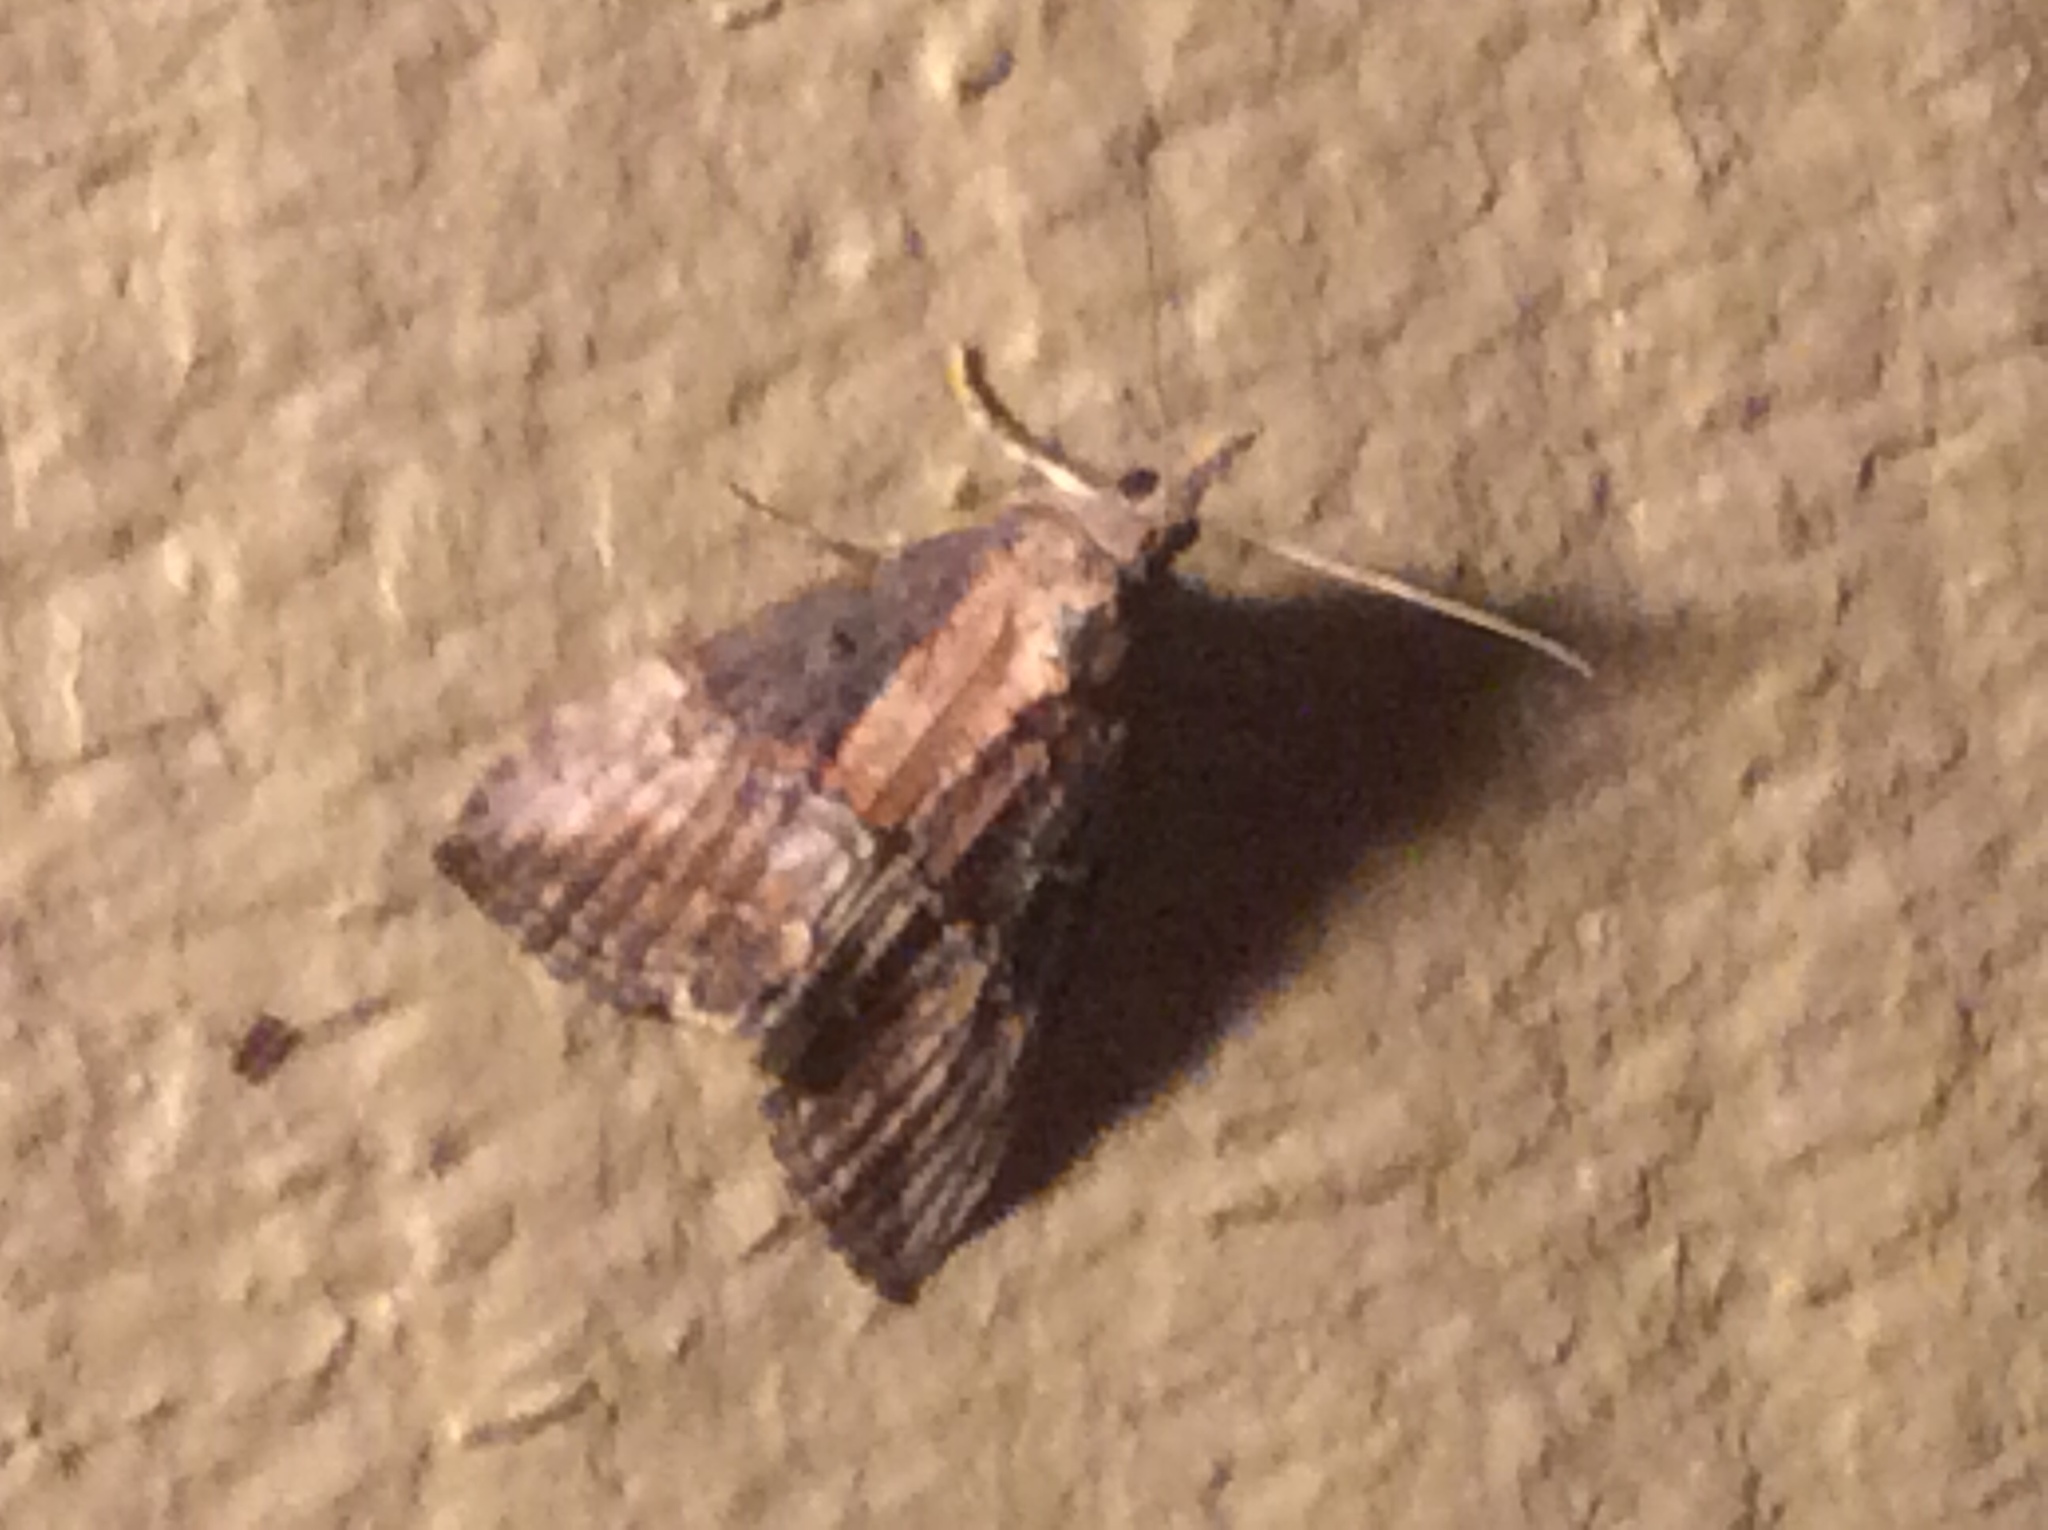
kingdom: Animalia
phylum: Arthropoda
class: Insecta
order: Lepidoptera
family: Erebidae
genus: Hypena
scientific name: Hypena scabra
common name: Green cloverworm
